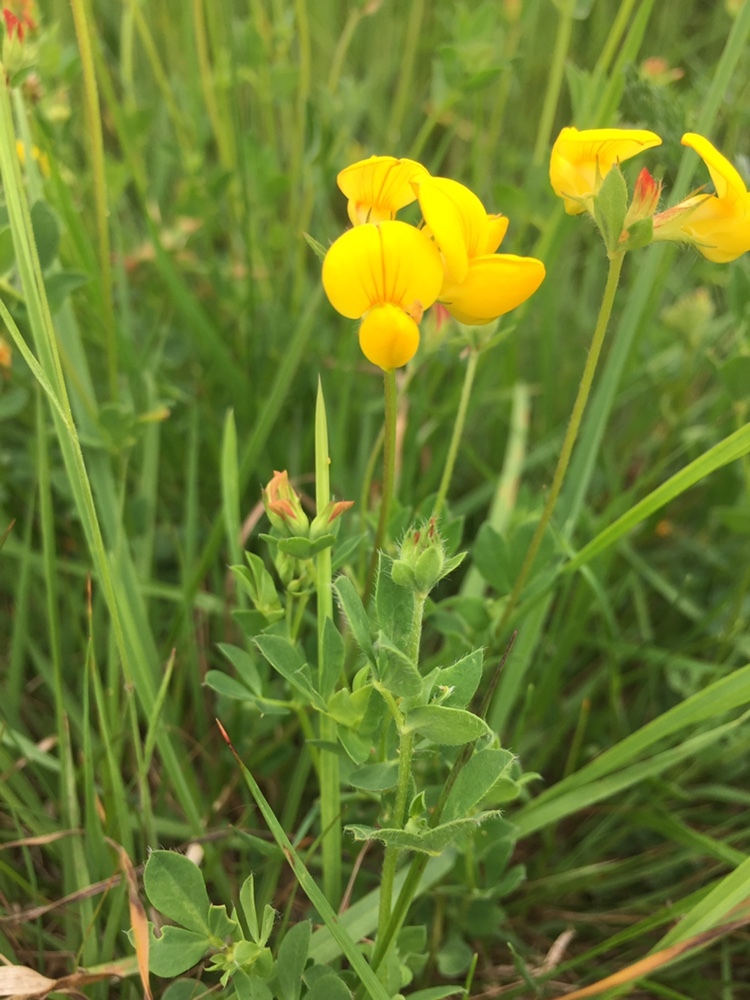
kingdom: Plantae
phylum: Tracheophyta
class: Magnoliopsida
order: Fabales
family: Fabaceae
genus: Lotus
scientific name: Lotus corniculatus
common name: Common bird's-foot-trefoil
